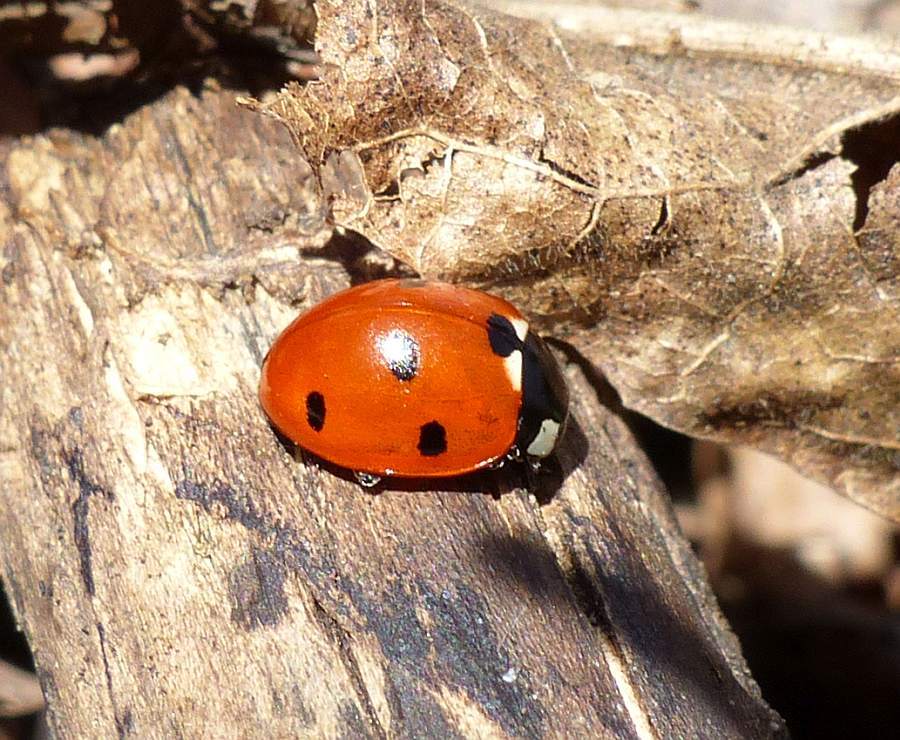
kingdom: Animalia
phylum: Arthropoda
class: Insecta
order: Coleoptera
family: Coccinellidae
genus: Coccinella
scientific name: Coccinella septempunctata
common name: Sevenspotted lady beetle
